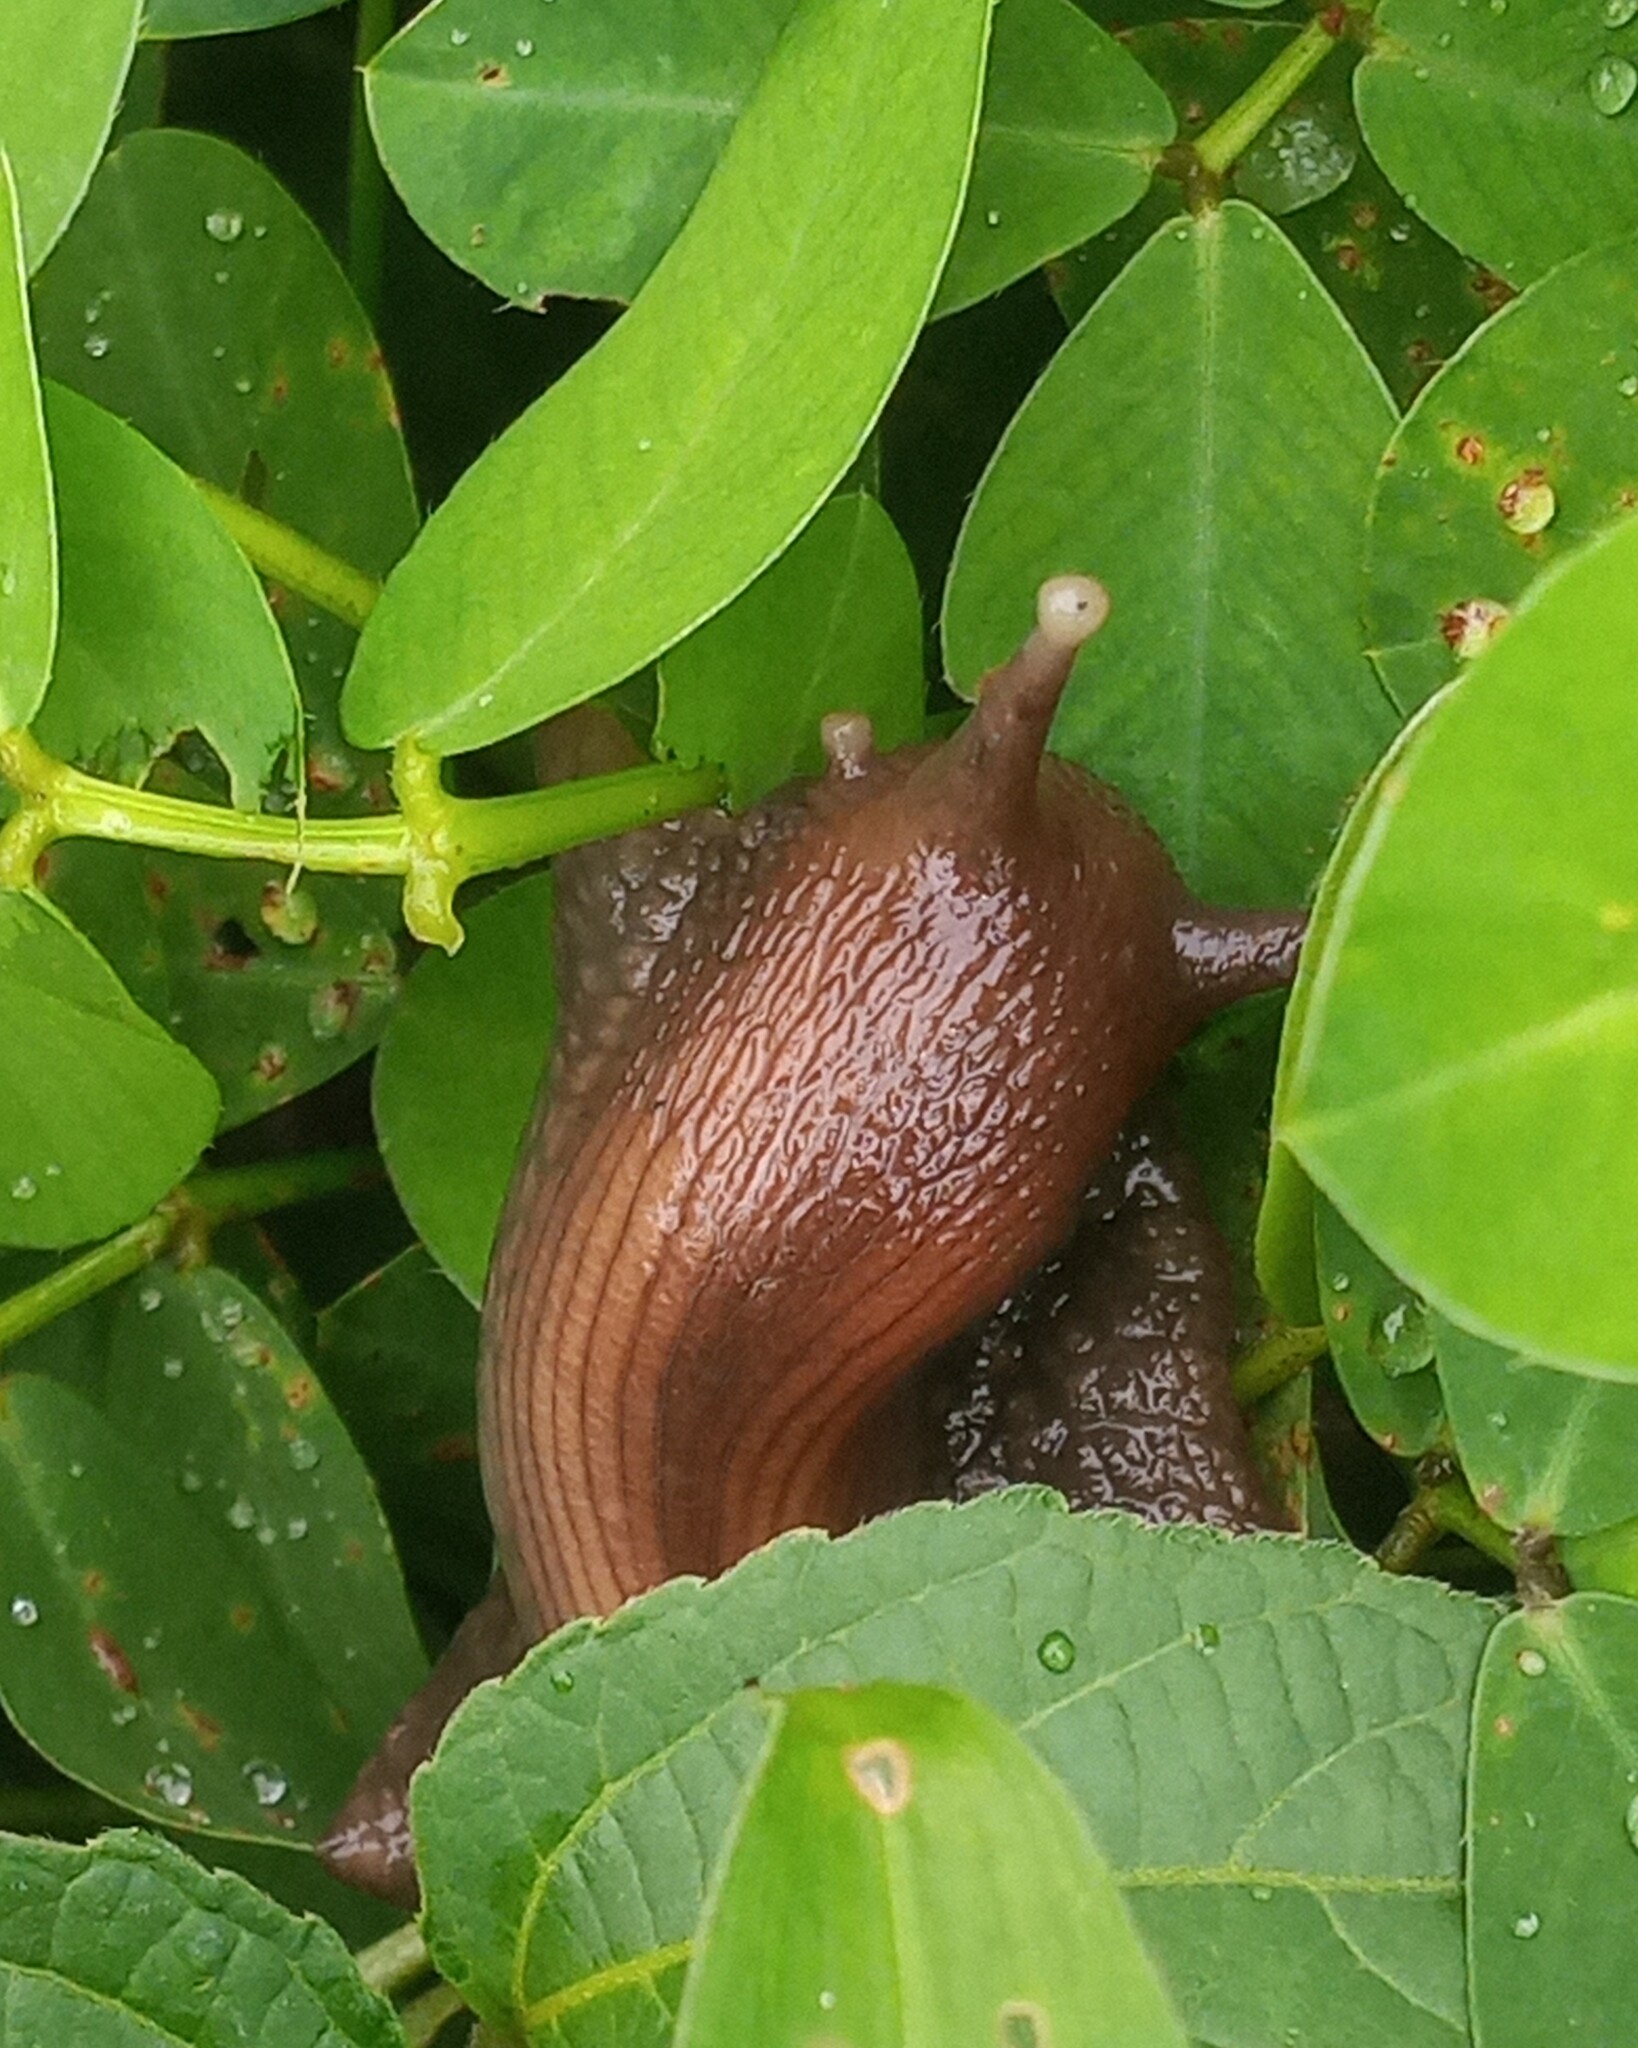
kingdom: Animalia
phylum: Mollusca
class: Gastropoda
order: Stylommatophora
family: Achatinidae
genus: Lissachatina
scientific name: Lissachatina fulica
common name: Giant african snail
